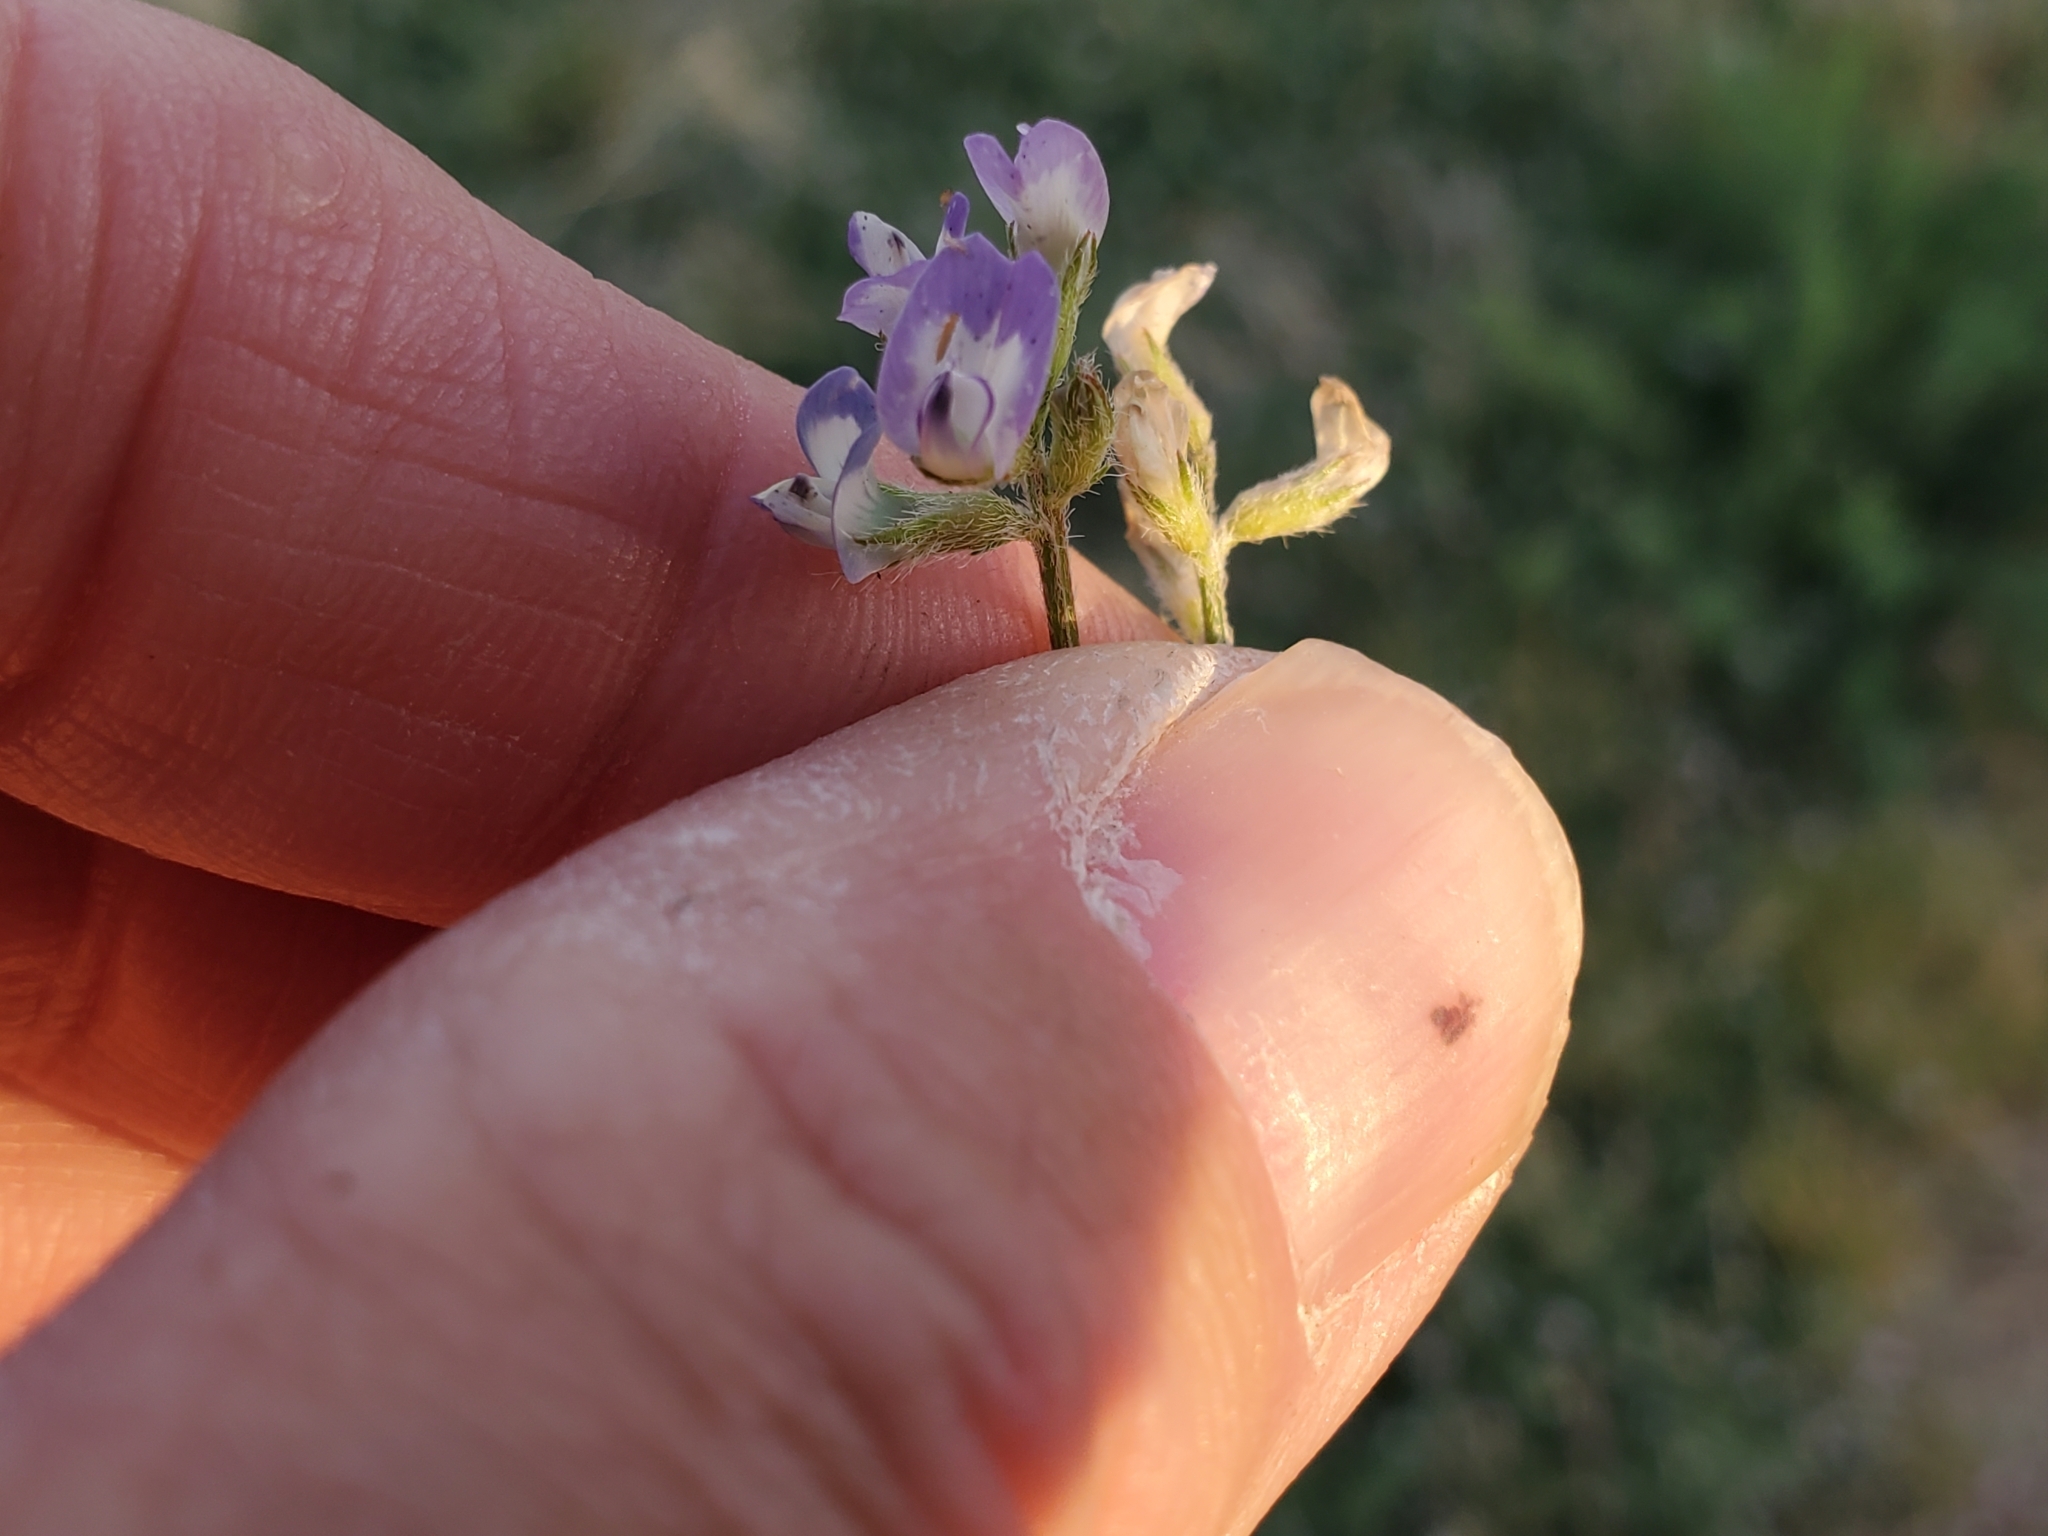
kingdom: Plantae
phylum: Tracheophyta
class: Magnoliopsida
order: Fabales
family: Fabaceae
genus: Astragalus
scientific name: Astragalus nuttallianus
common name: Smallflowered milkvetch
